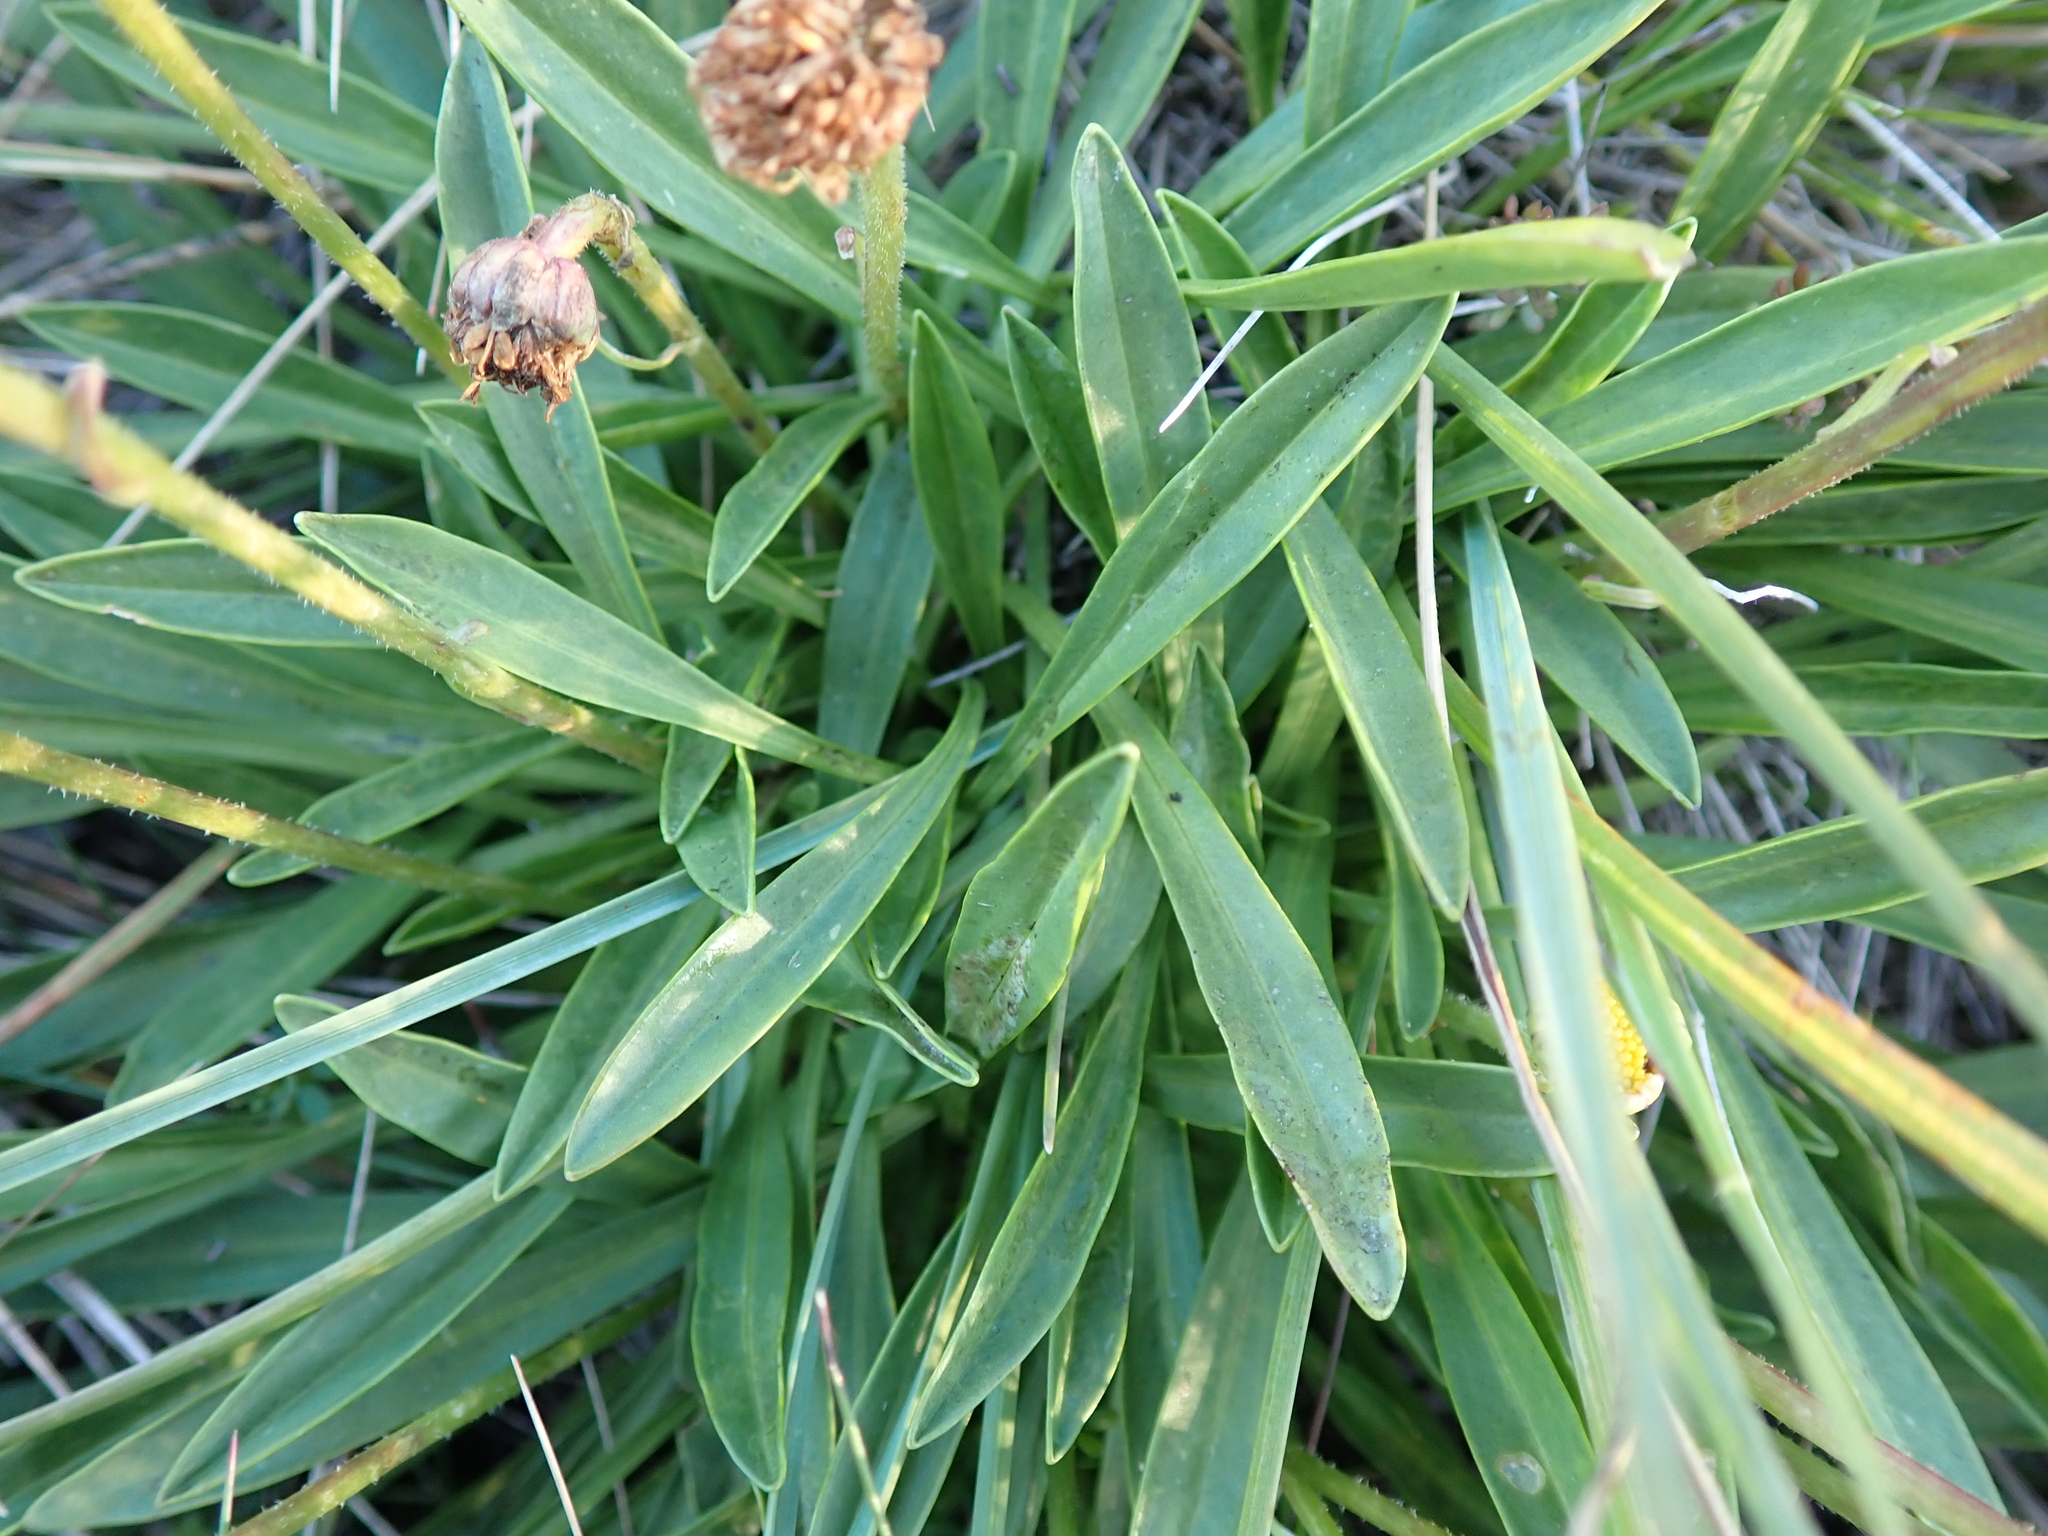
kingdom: Plantae
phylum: Tracheophyta
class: Magnoliopsida
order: Asterales
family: Asteraceae
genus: Brachyscome
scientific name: Brachyscome scapigera
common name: Tufted daisy
